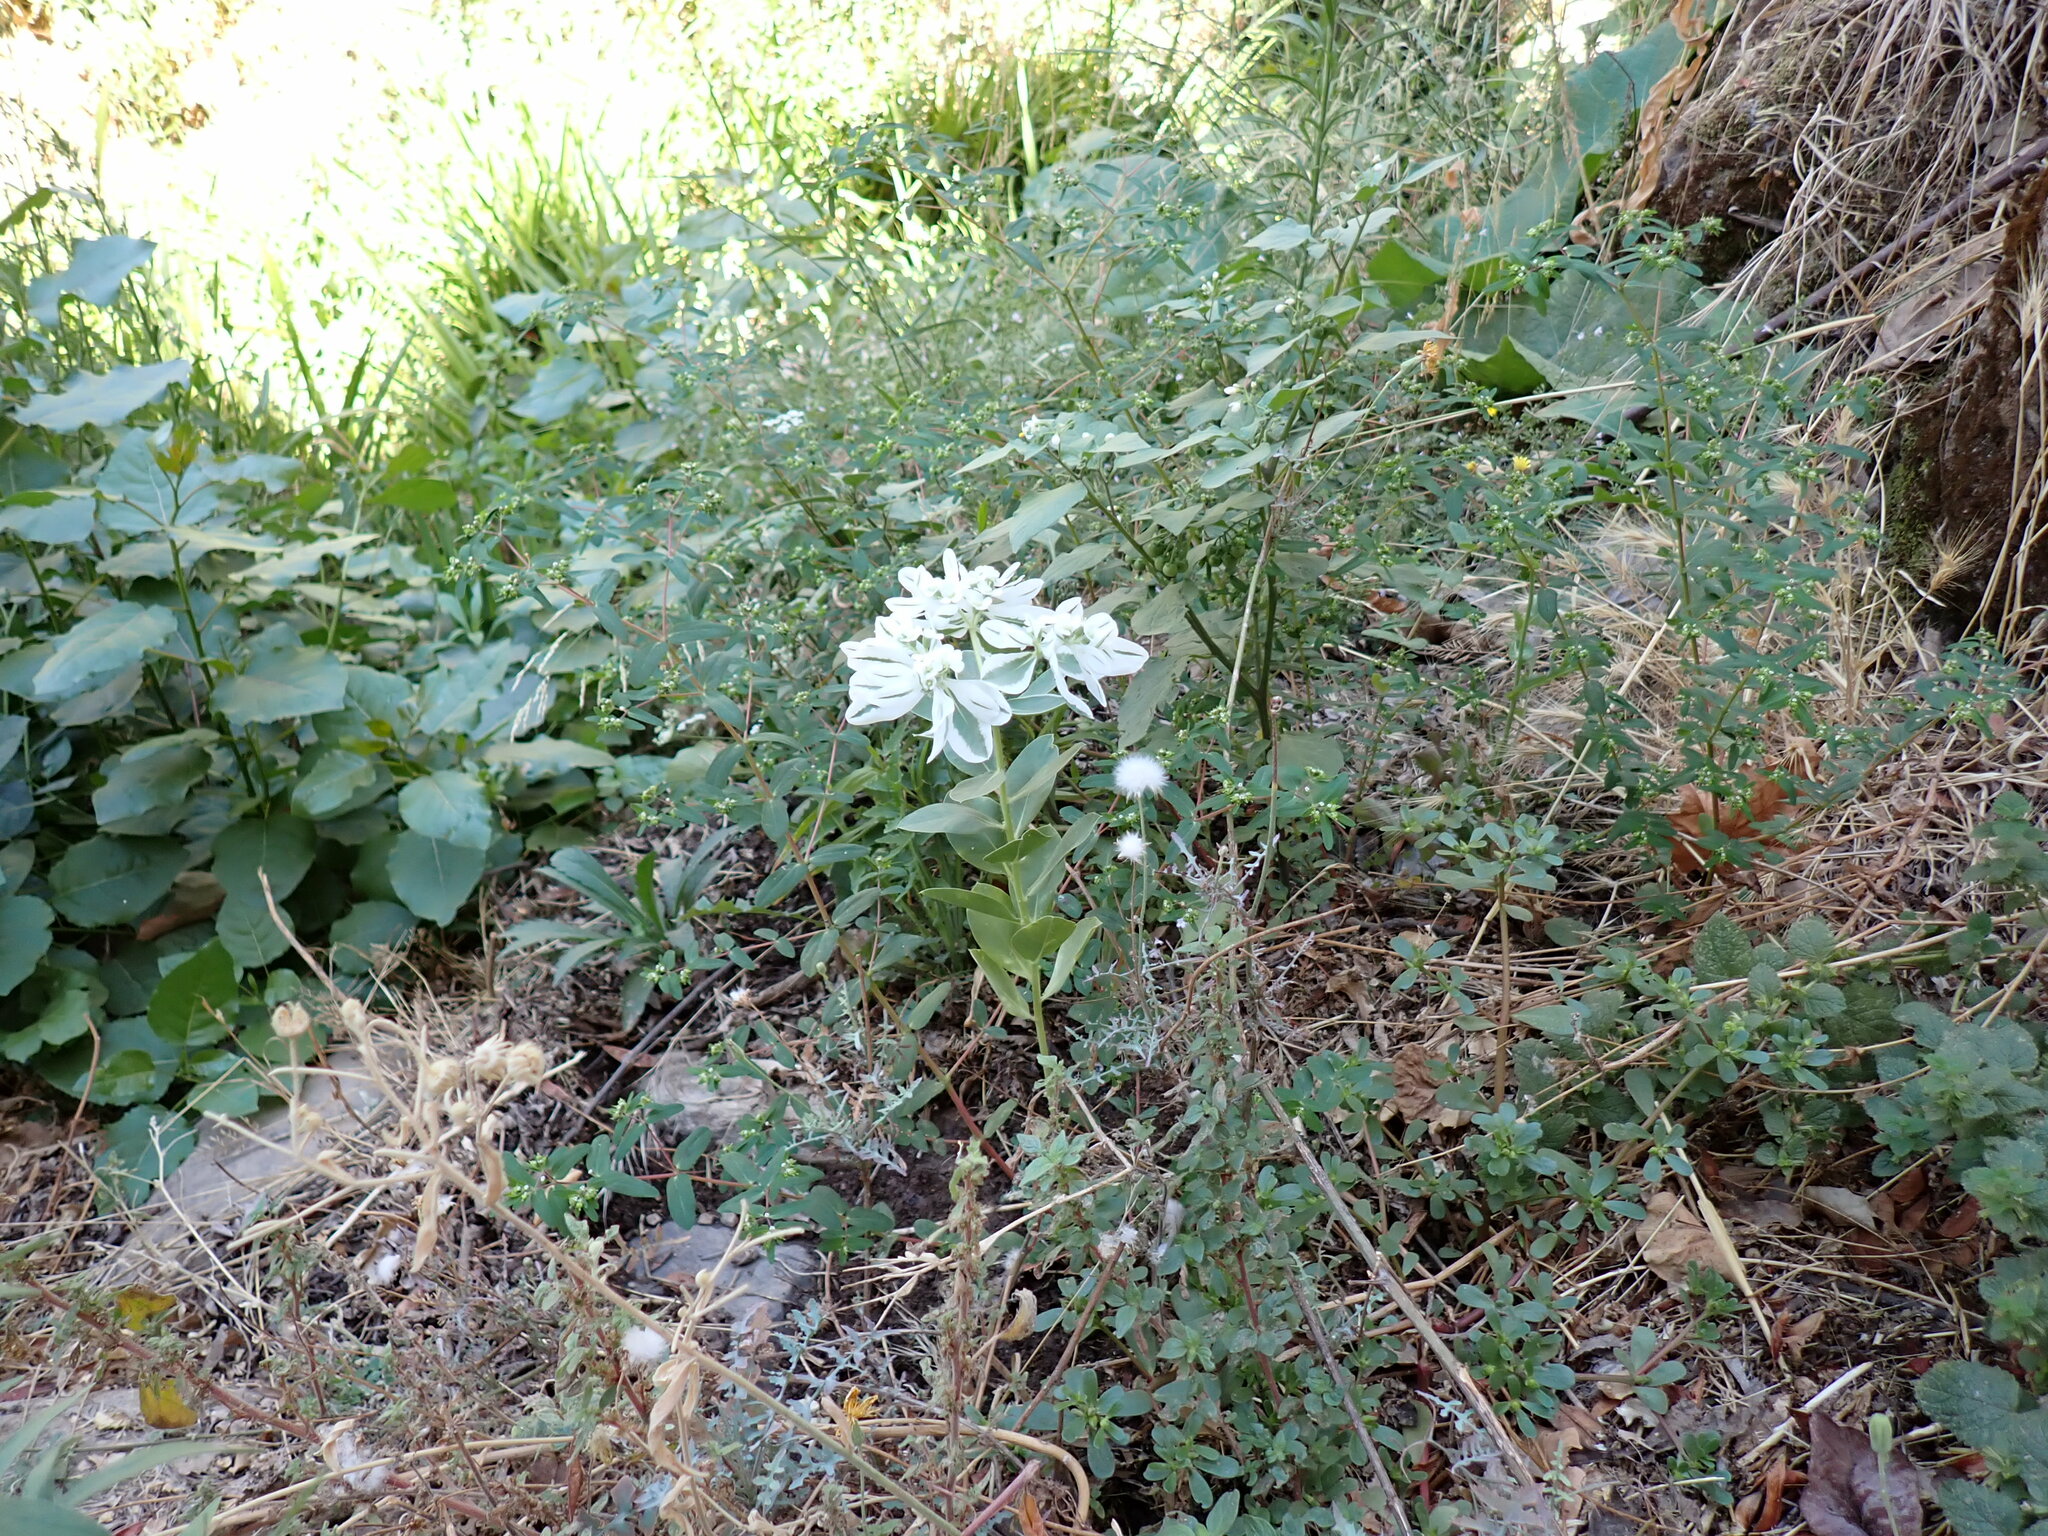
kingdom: Plantae
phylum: Tracheophyta
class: Magnoliopsida
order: Malpighiales
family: Euphorbiaceae
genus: Euphorbia
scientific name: Euphorbia marginata
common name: Ghostweed
